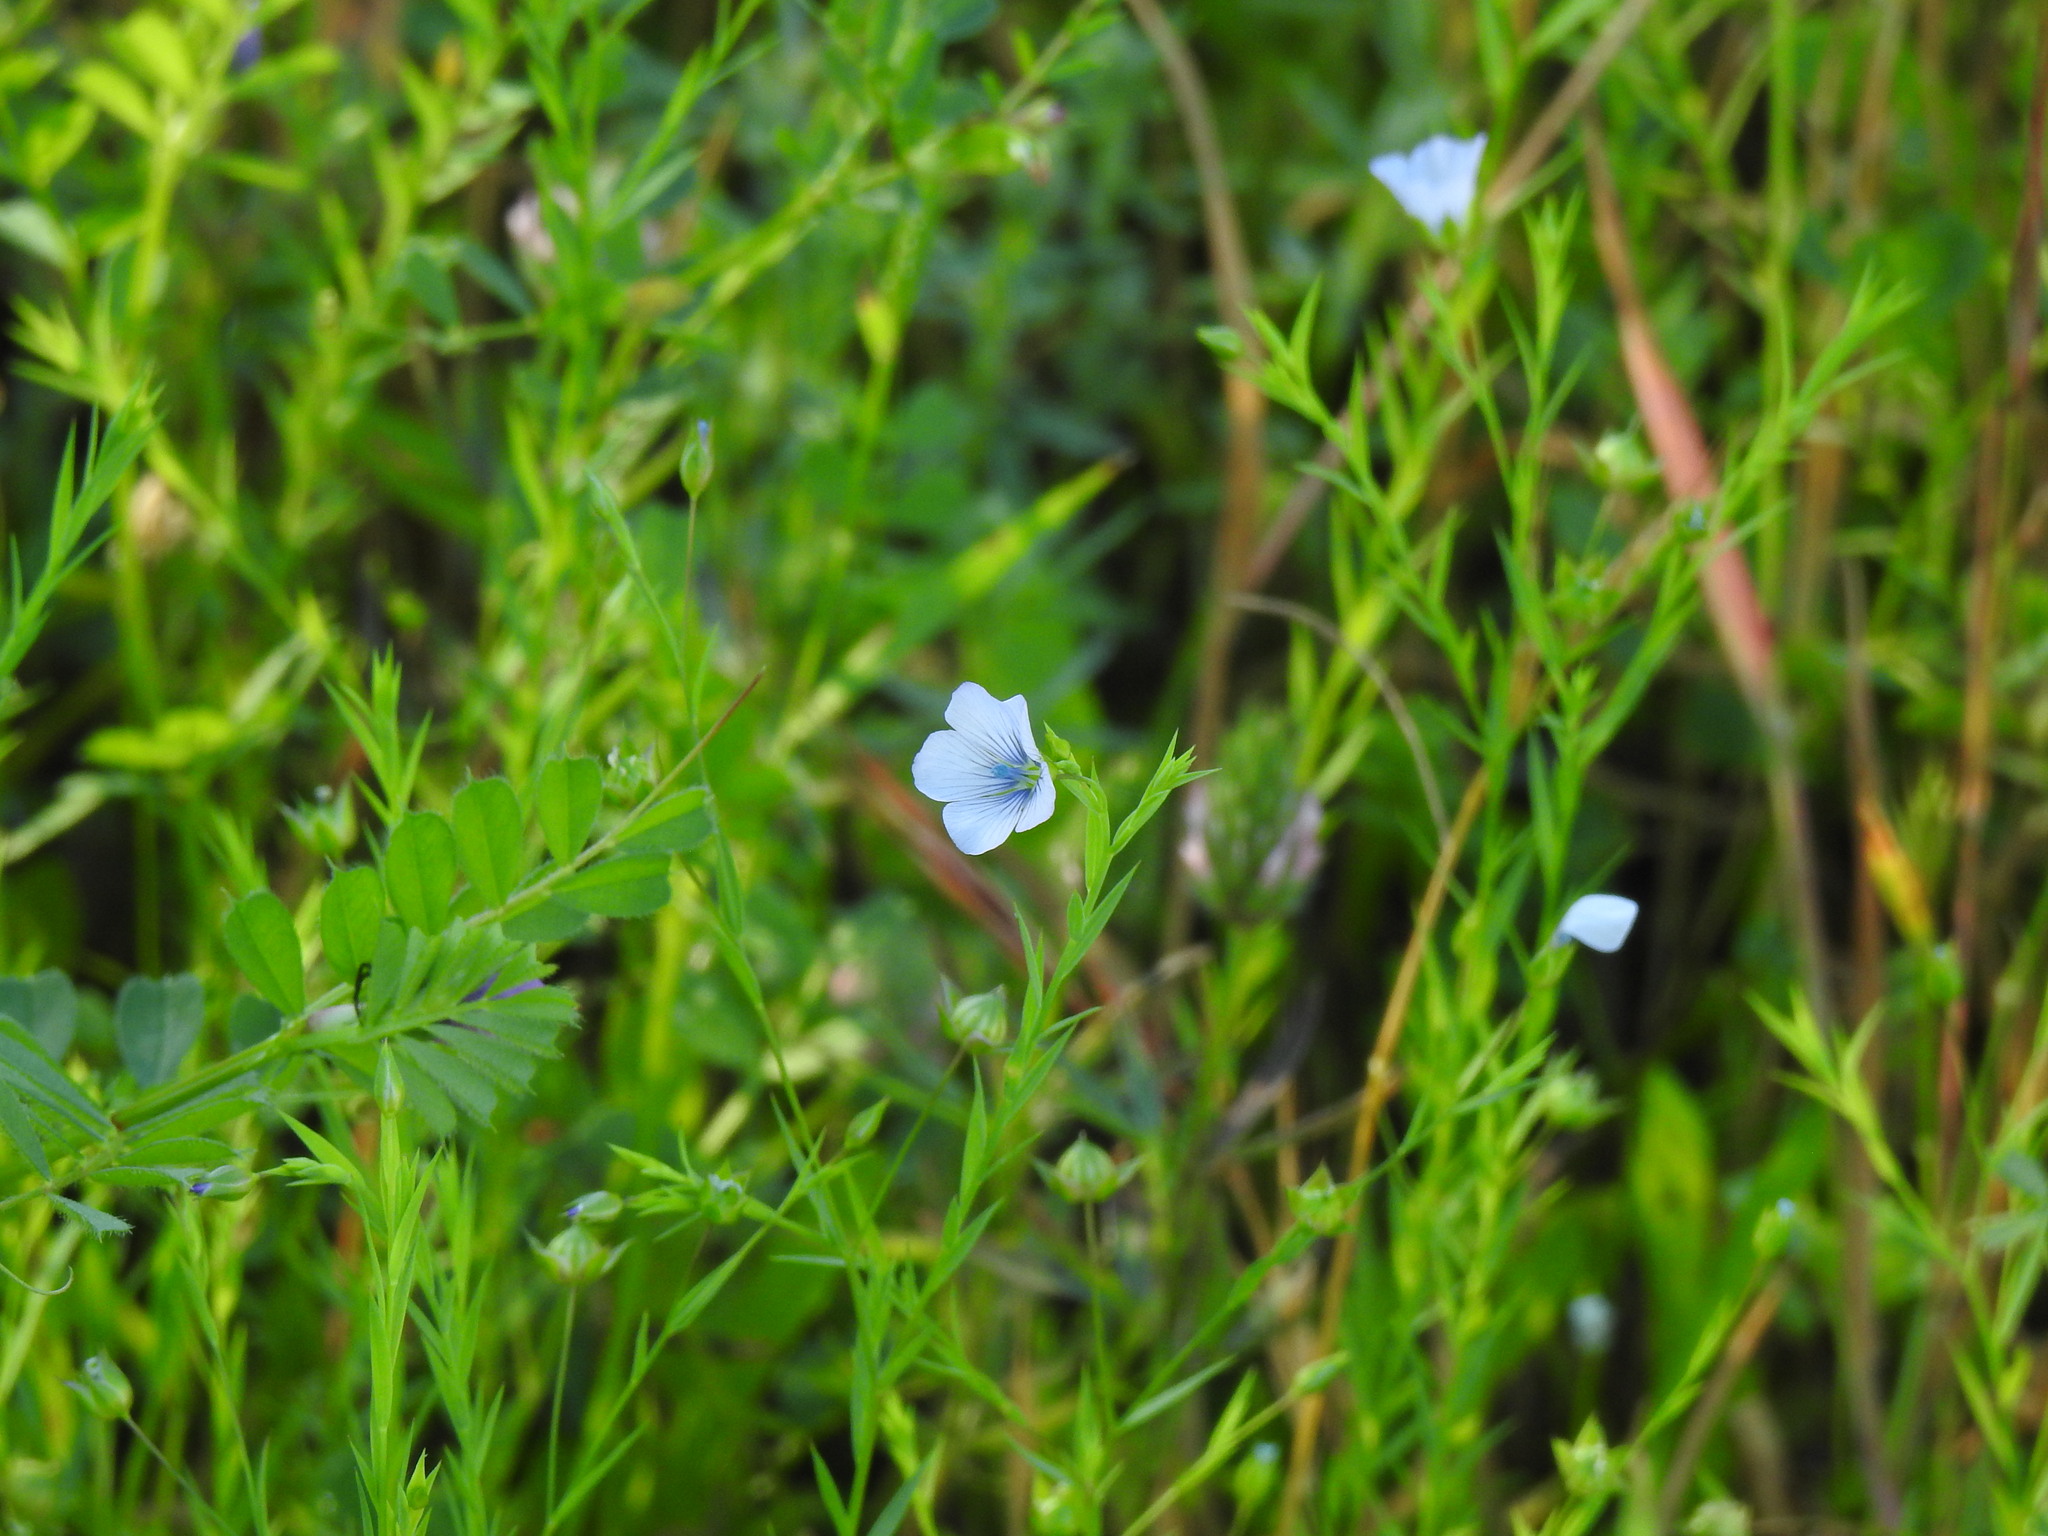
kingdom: Plantae
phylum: Tracheophyta
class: Magnoliopsida
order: Malpighiales
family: Linaceae
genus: Linum
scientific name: Linum bienne
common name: Pale flax
